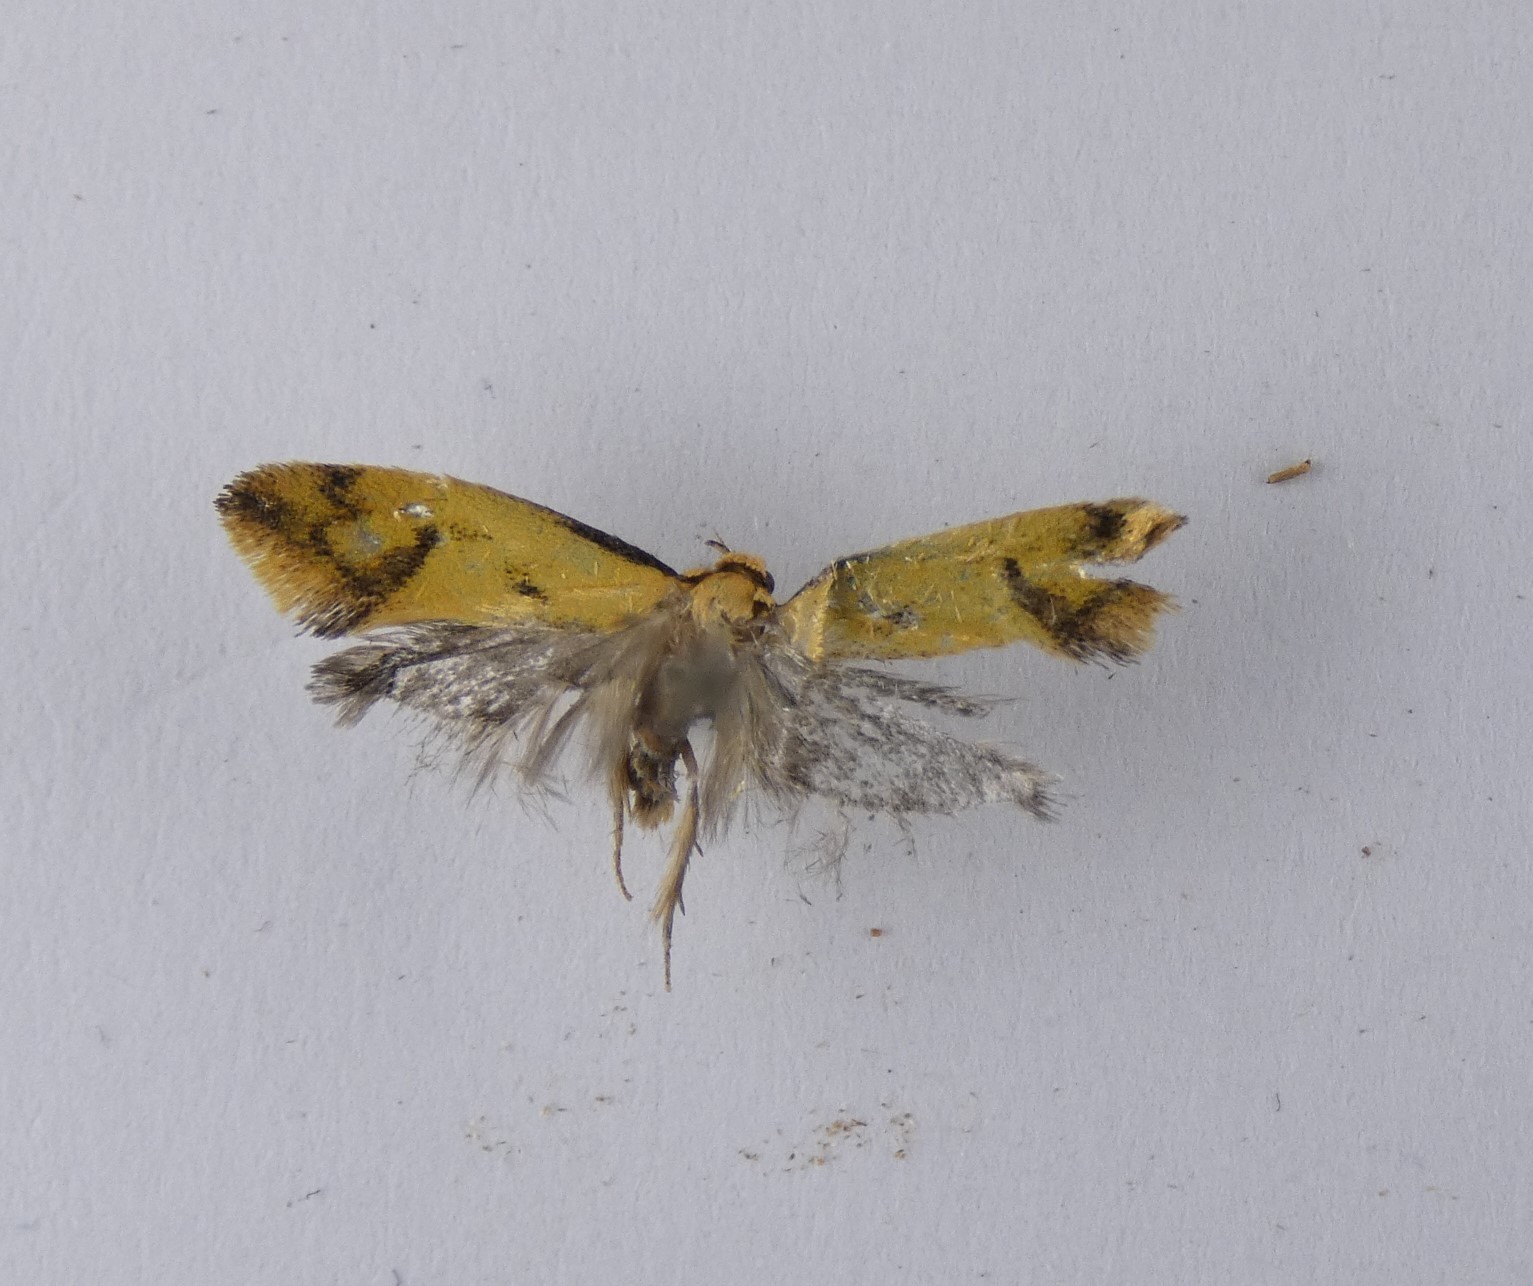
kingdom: Animalia
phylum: Arthropoda
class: Insecta
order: Lepidoptera
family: Oecophoridae
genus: Tingena
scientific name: Tingena actinias
